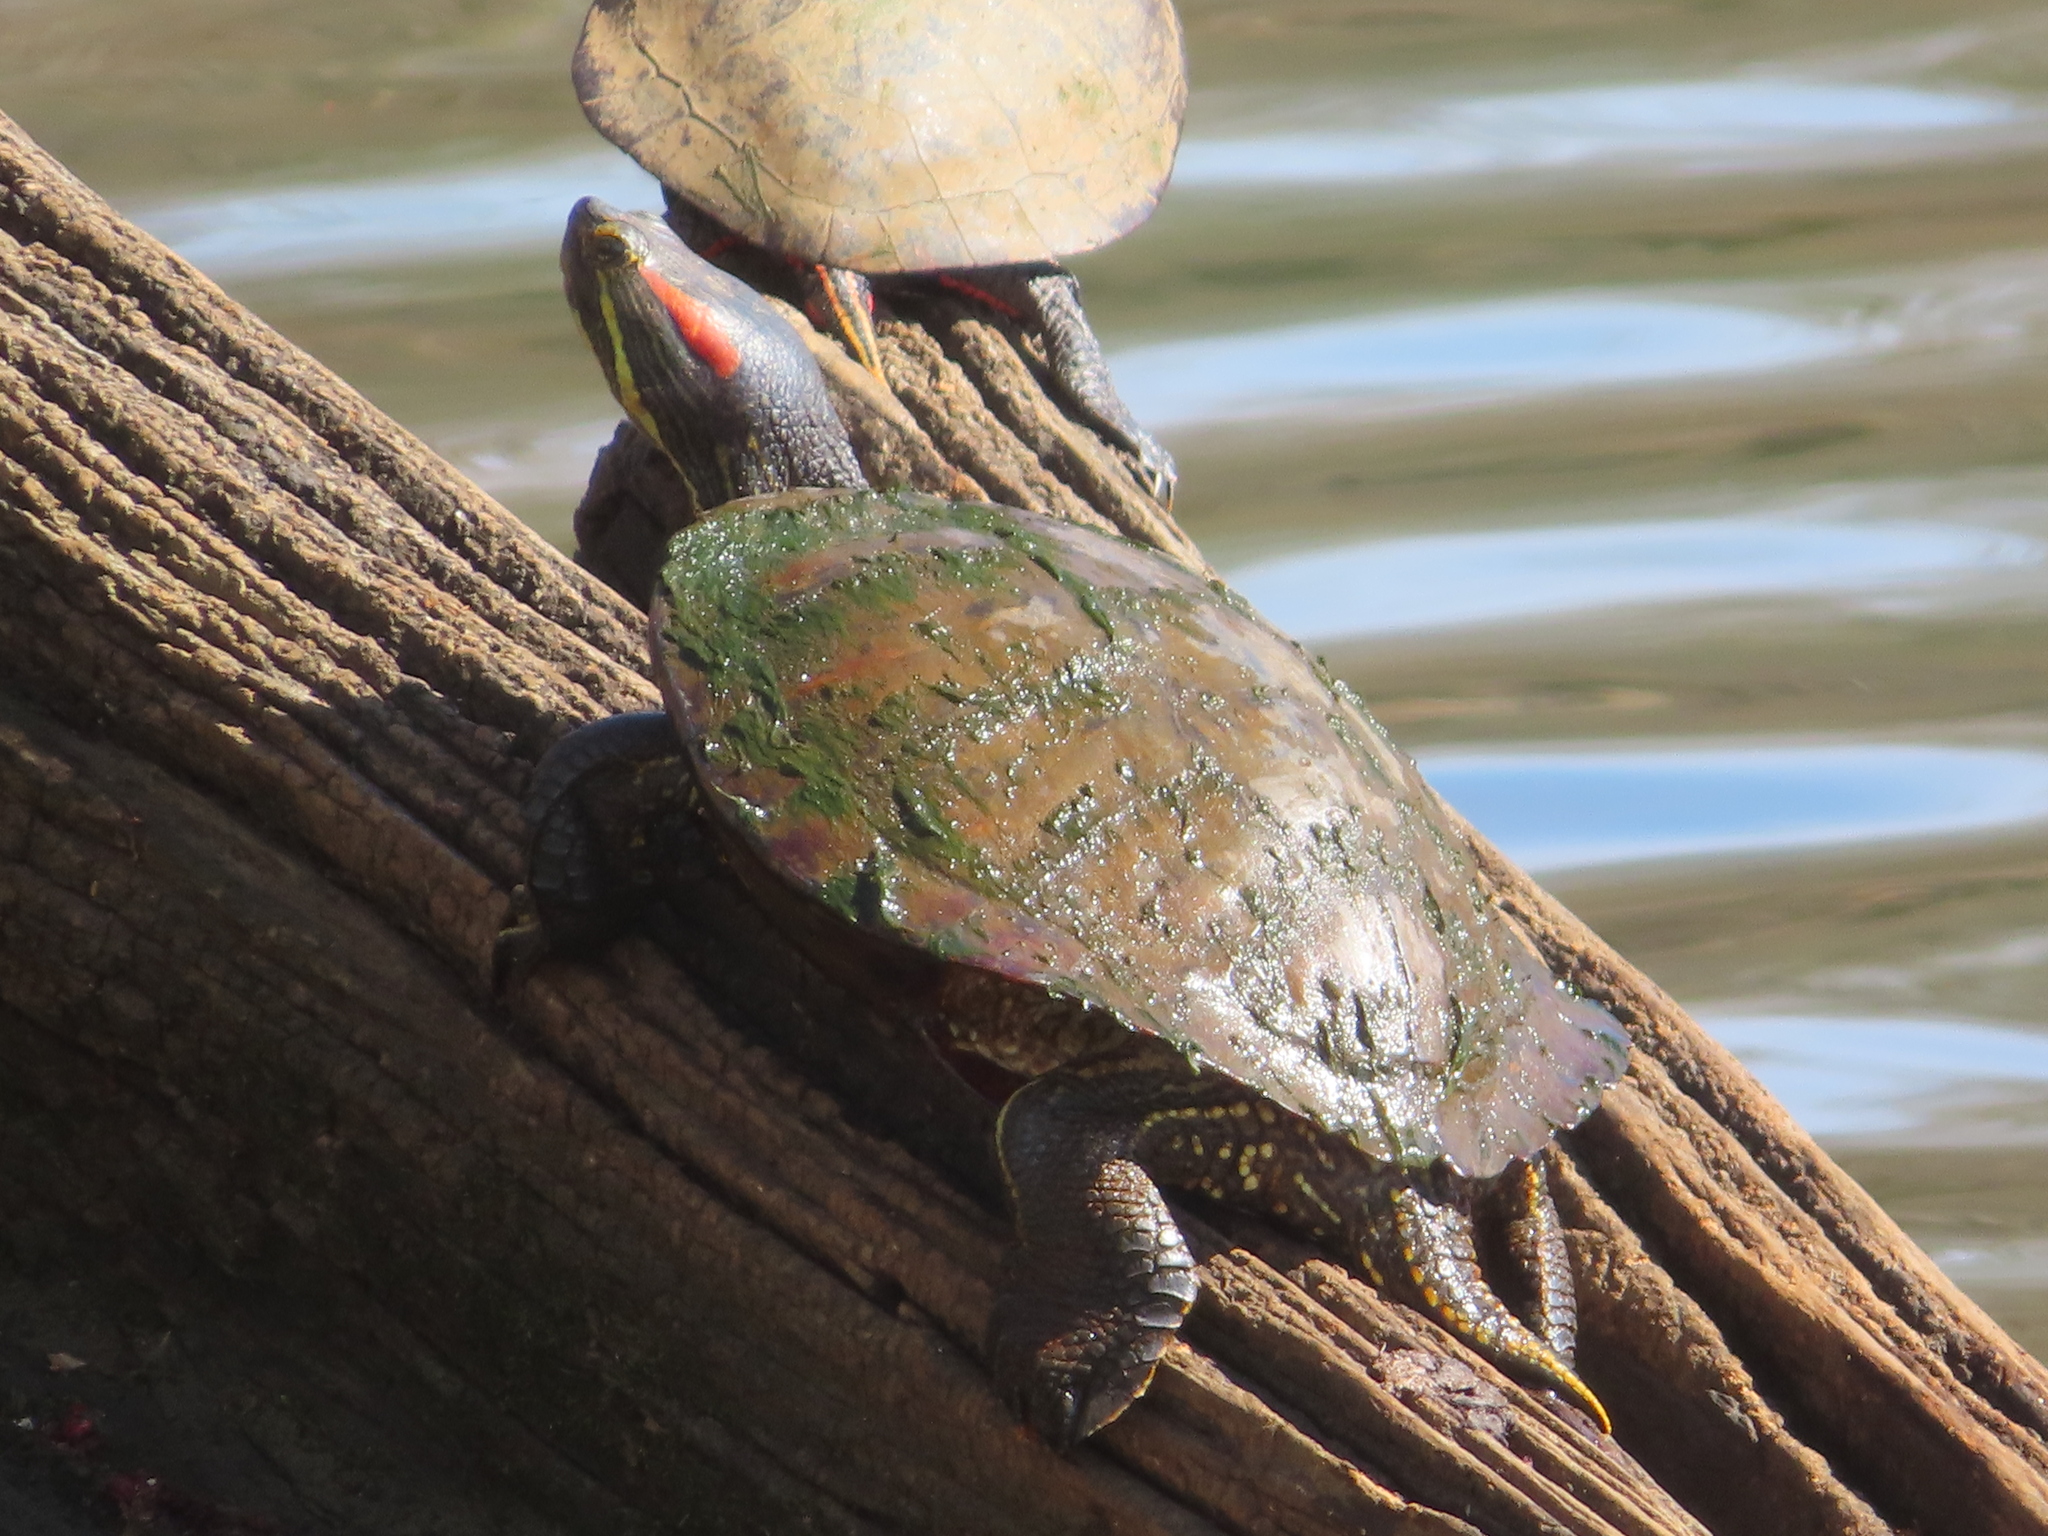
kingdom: Animalia
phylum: Chordata
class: Testudines
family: Emydidae
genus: Trachemys
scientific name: Trachemys scripta
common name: Slider
